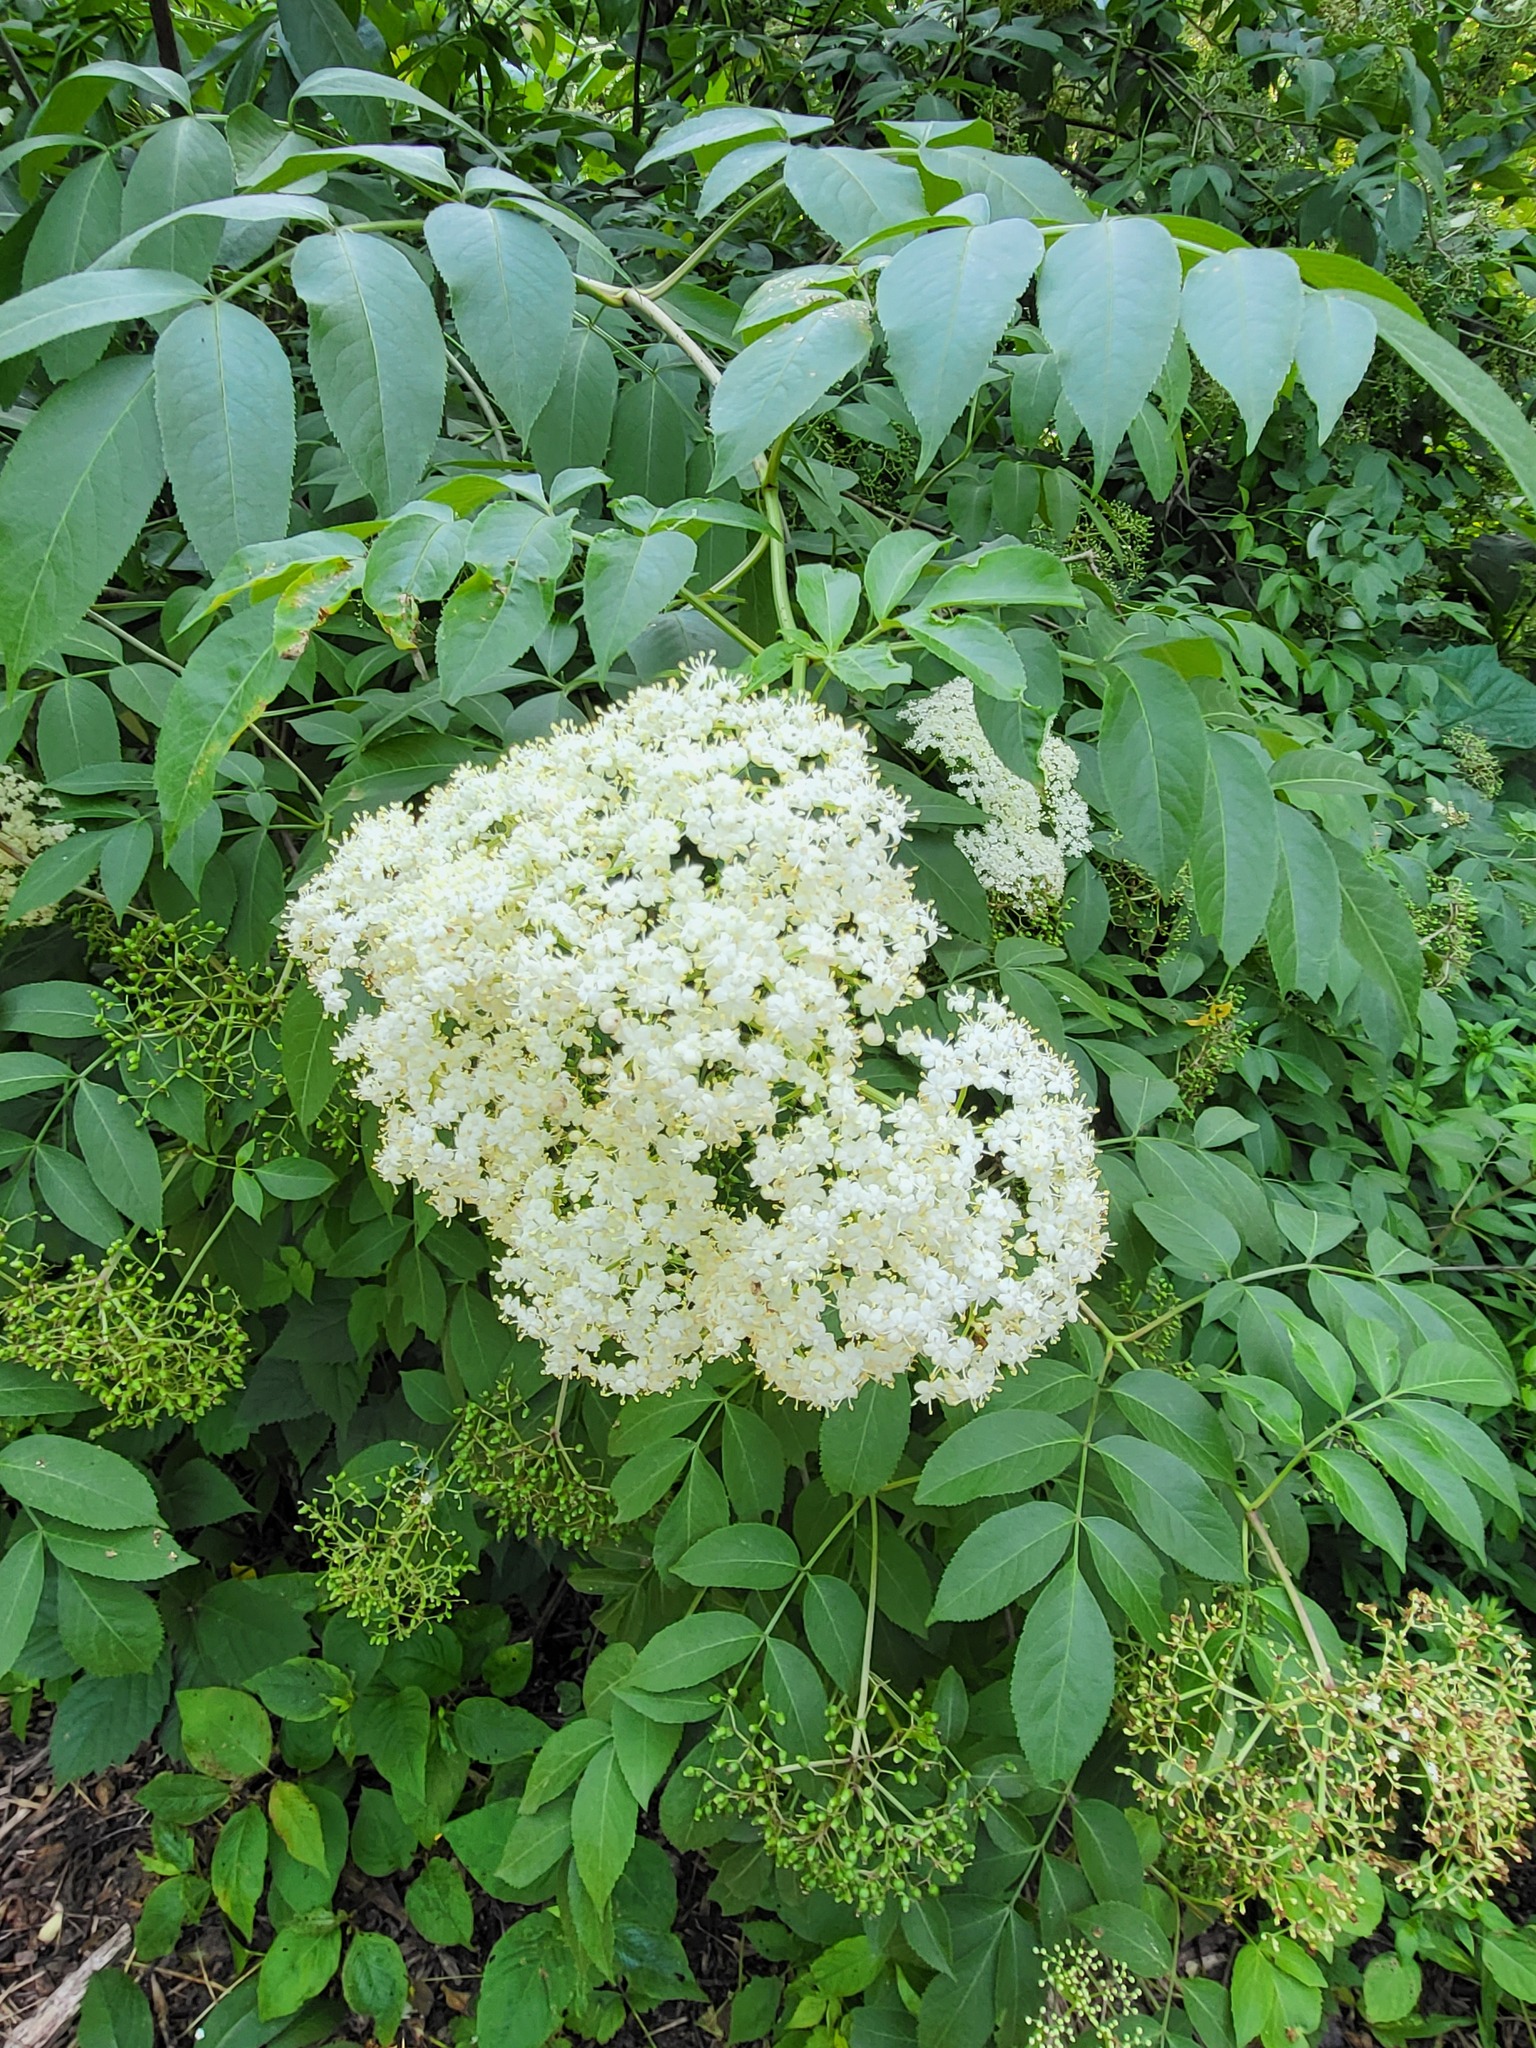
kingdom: Plantae
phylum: Tracheophyta
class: Magnoliopsida
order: Dipsacales
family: Viburnaceae
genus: Sambucus
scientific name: Sambucus canadensis
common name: American elder
